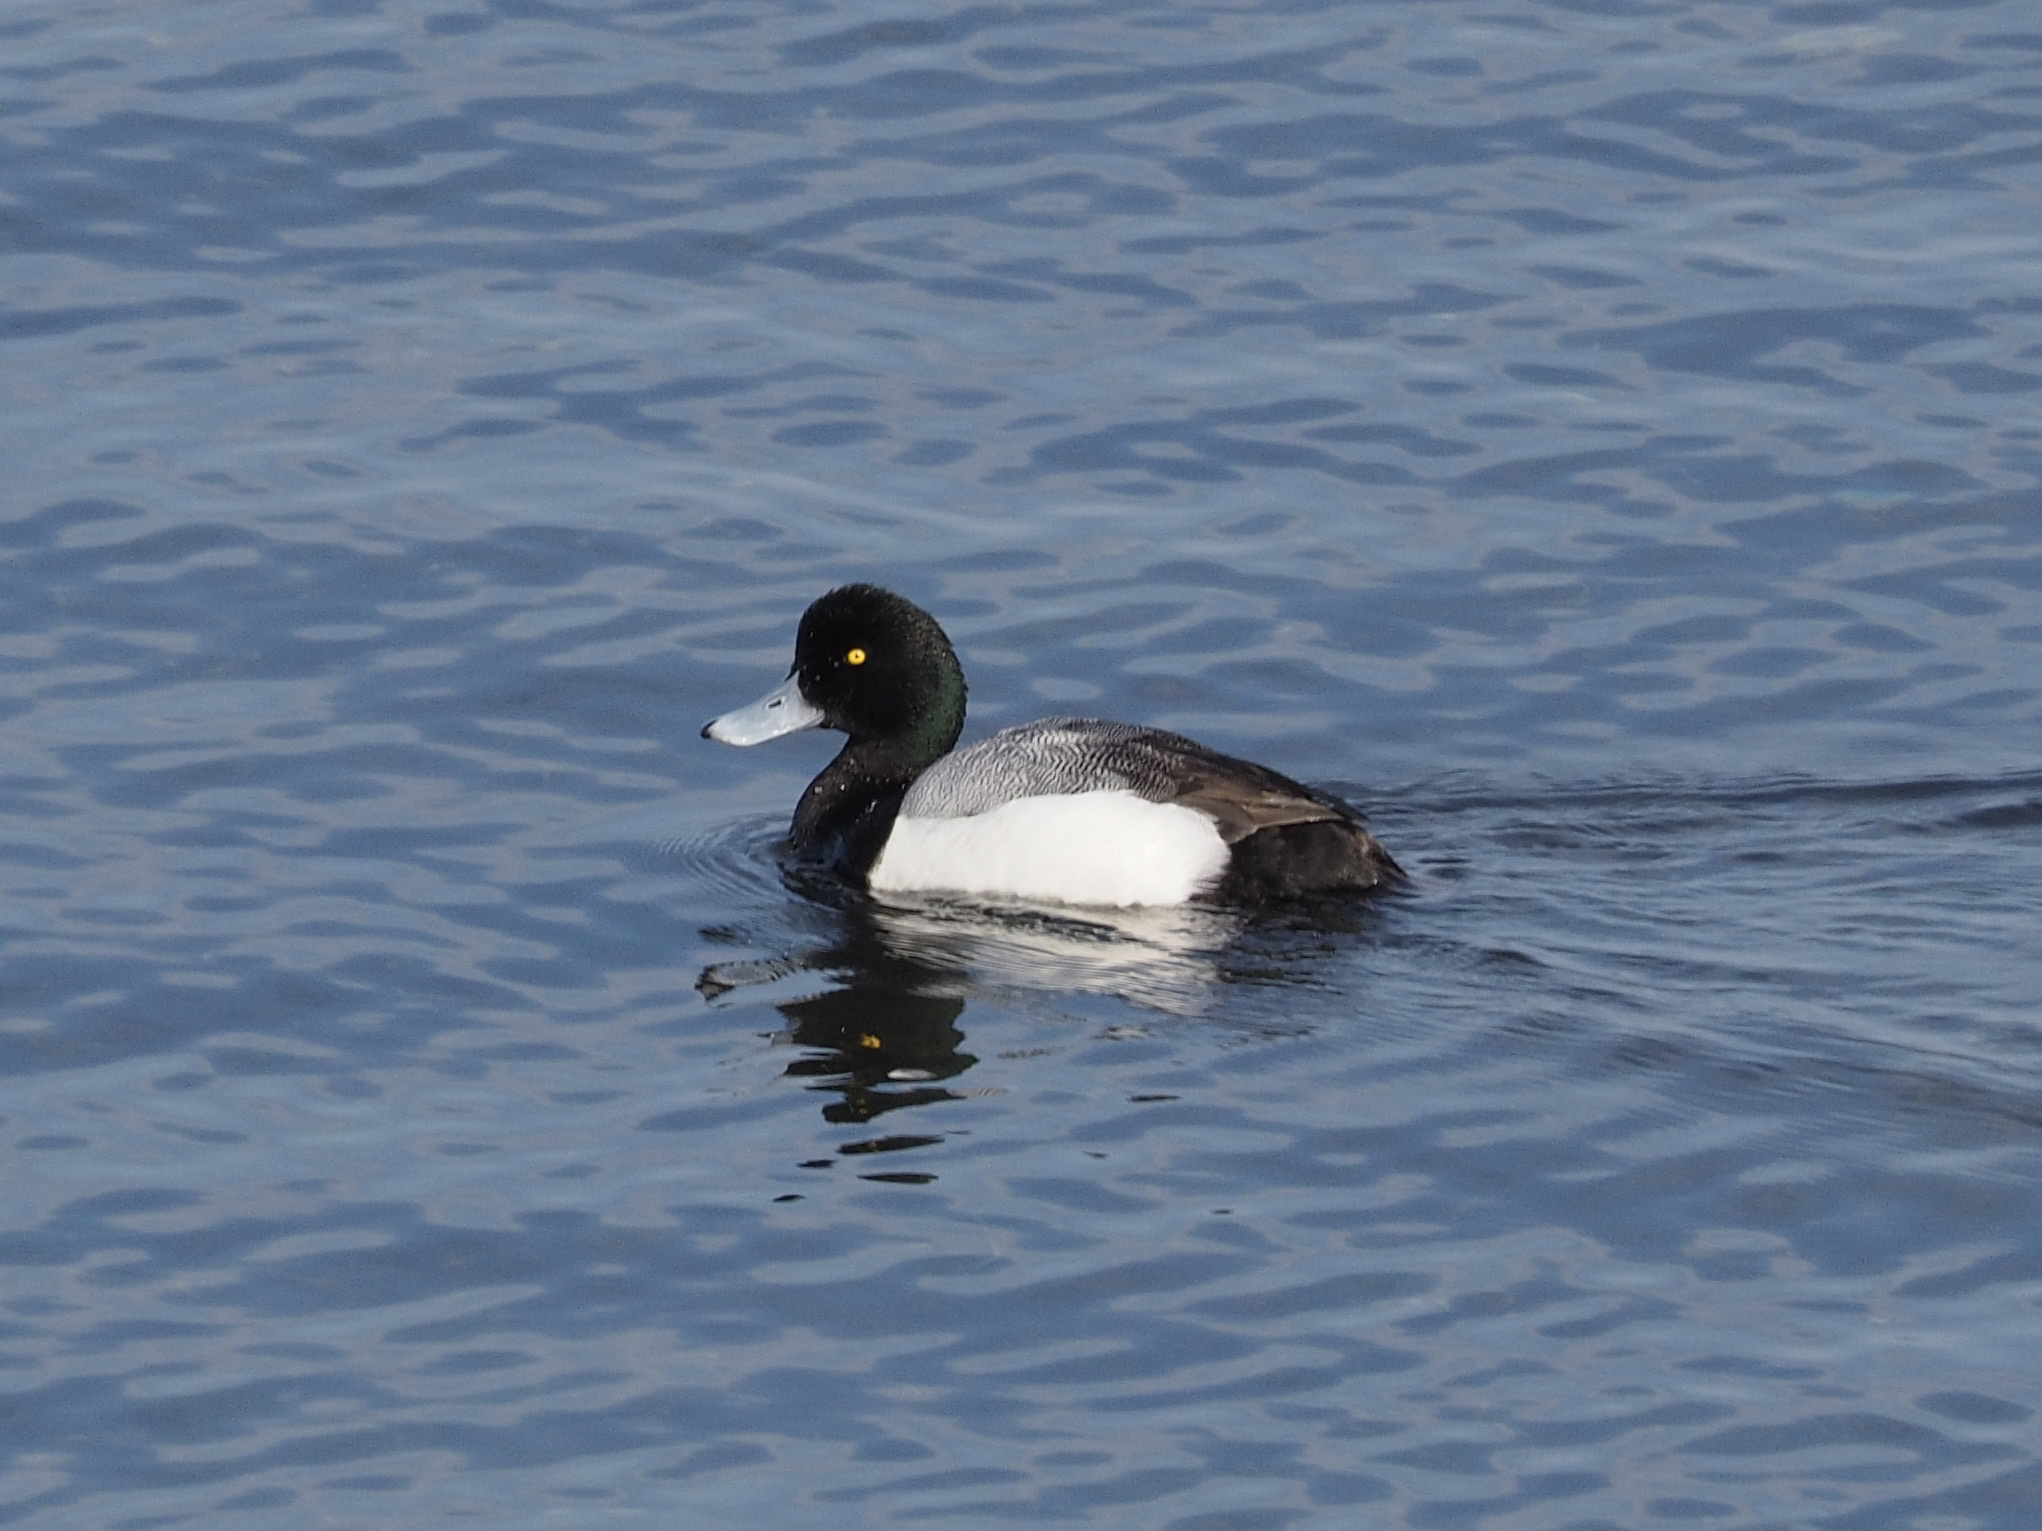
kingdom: Animalia
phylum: Chordata
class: Aves
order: Anseriformes
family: Anatidae
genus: Aythya
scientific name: Aythya marila
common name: Greater scaup
